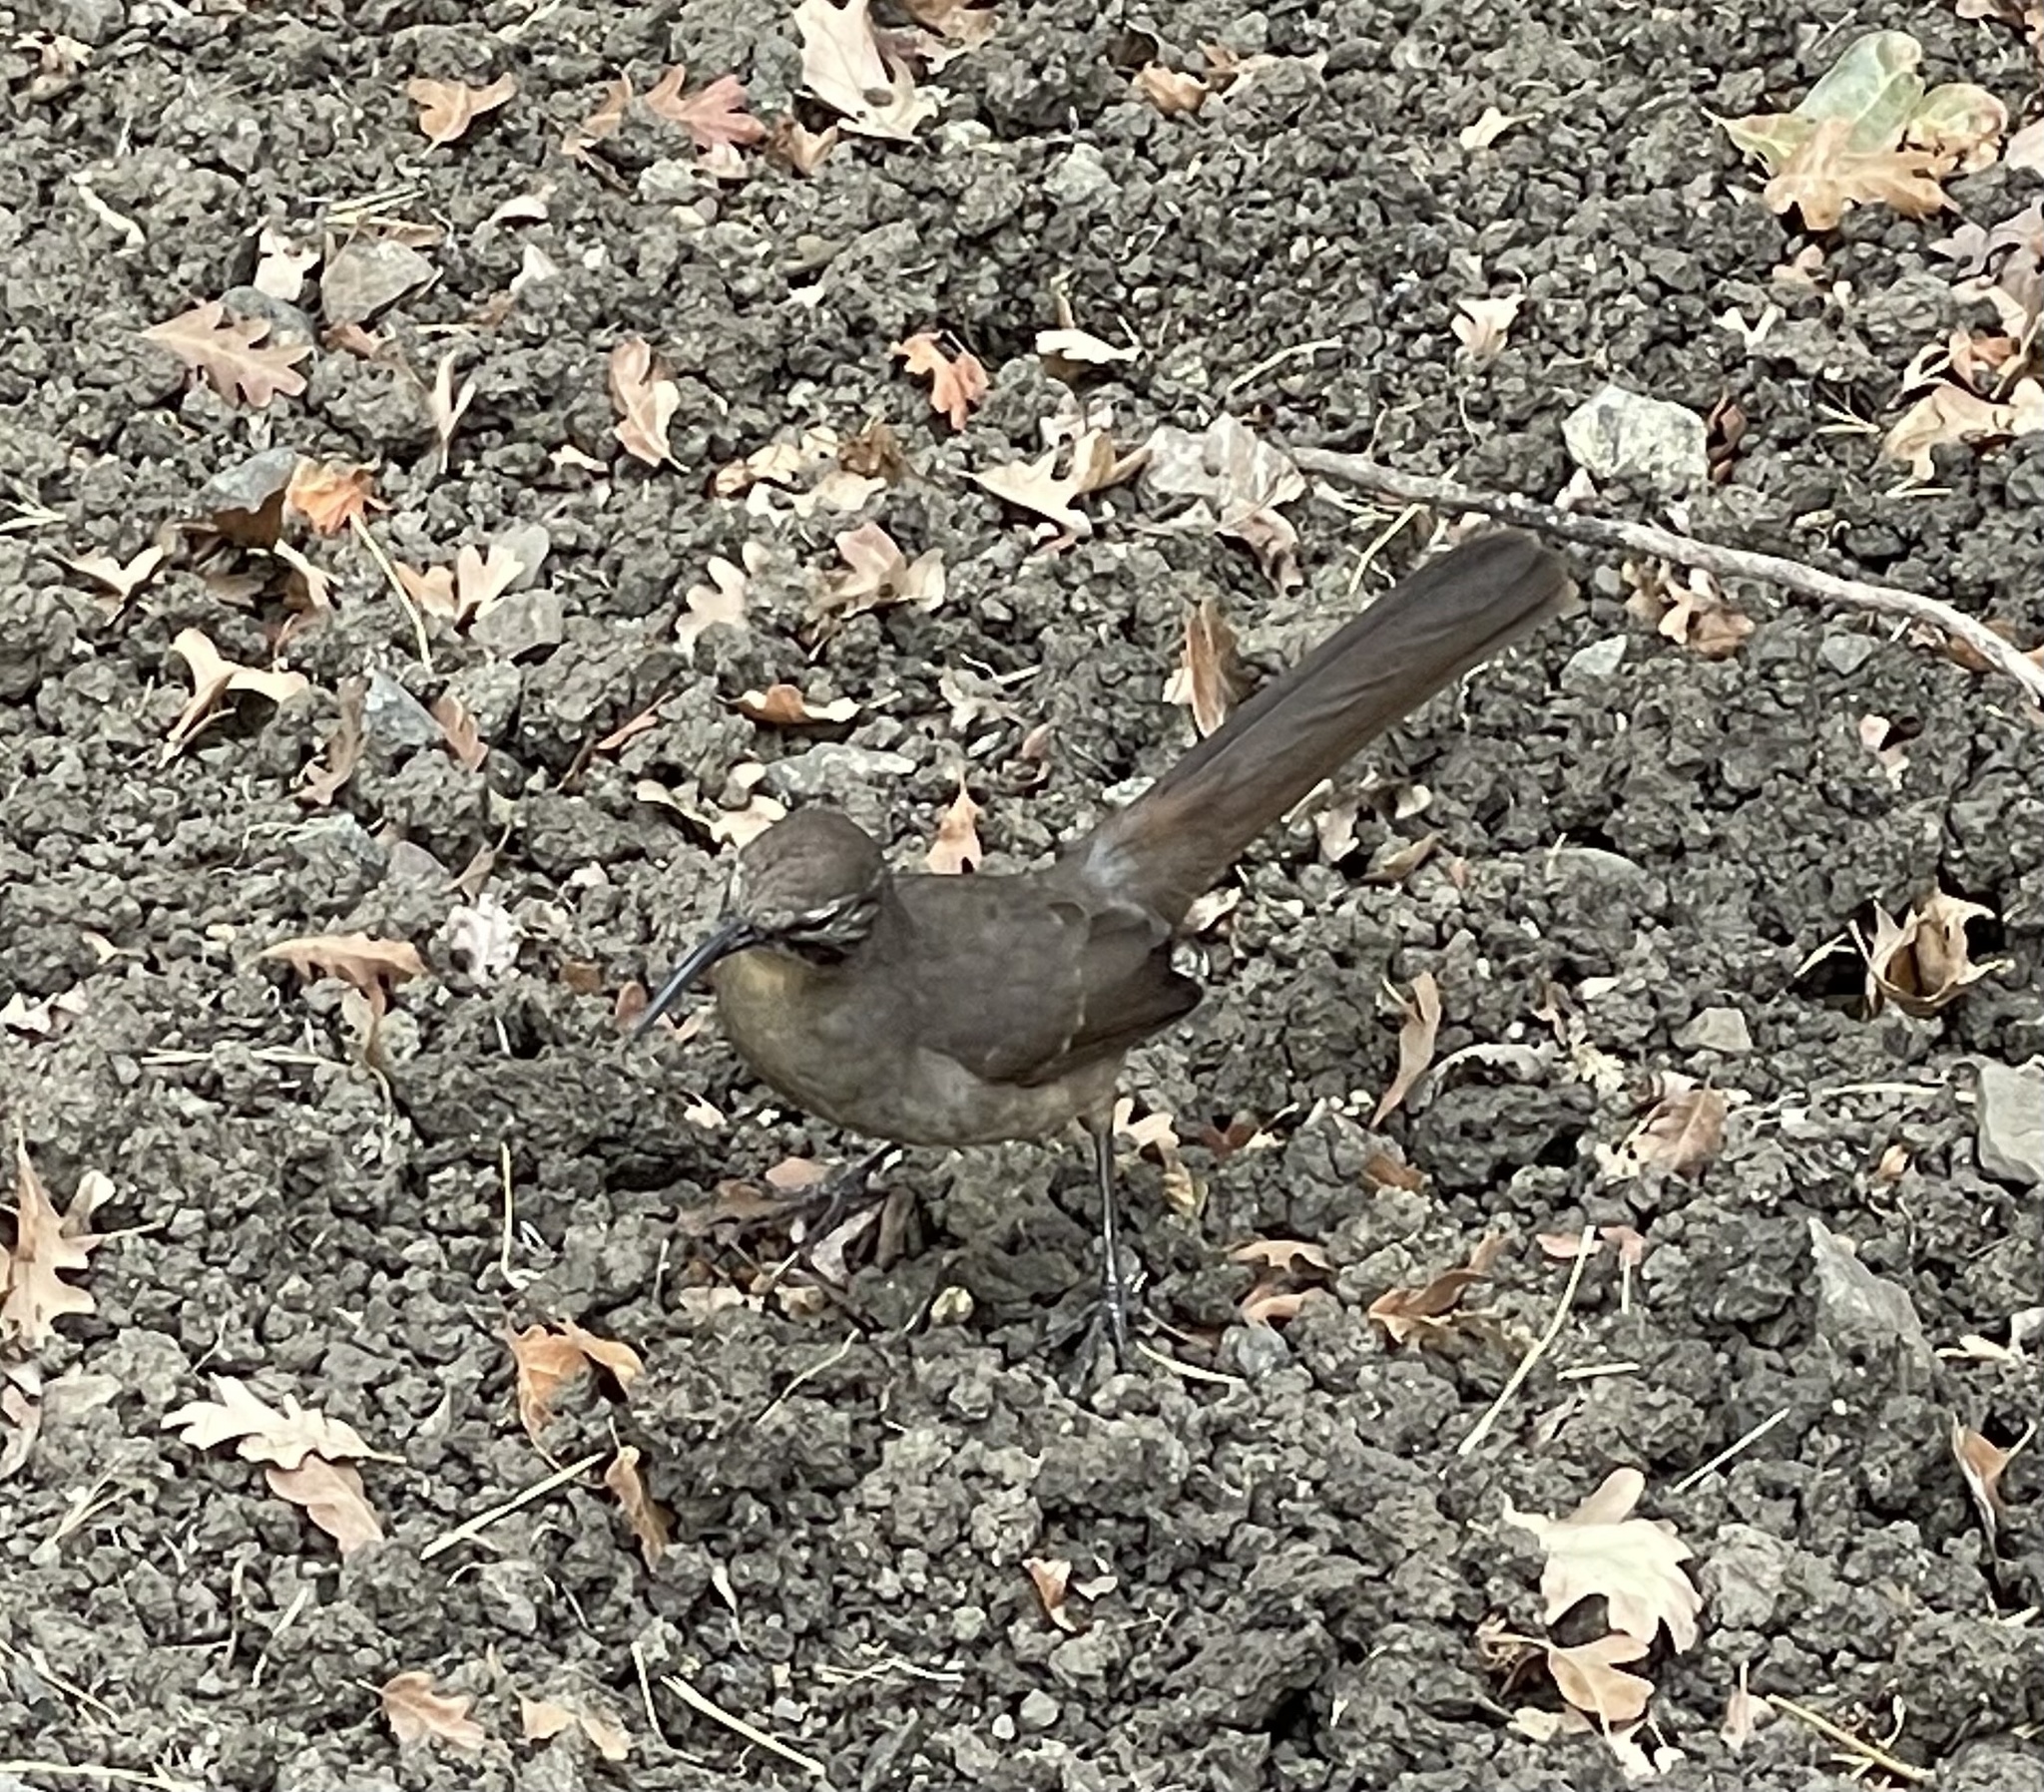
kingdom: Animalia
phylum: Chordata
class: Aves
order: Passeriformes
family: Mimidae
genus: Toxostoma
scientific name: Toxostoma redivivum
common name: California thrasher
